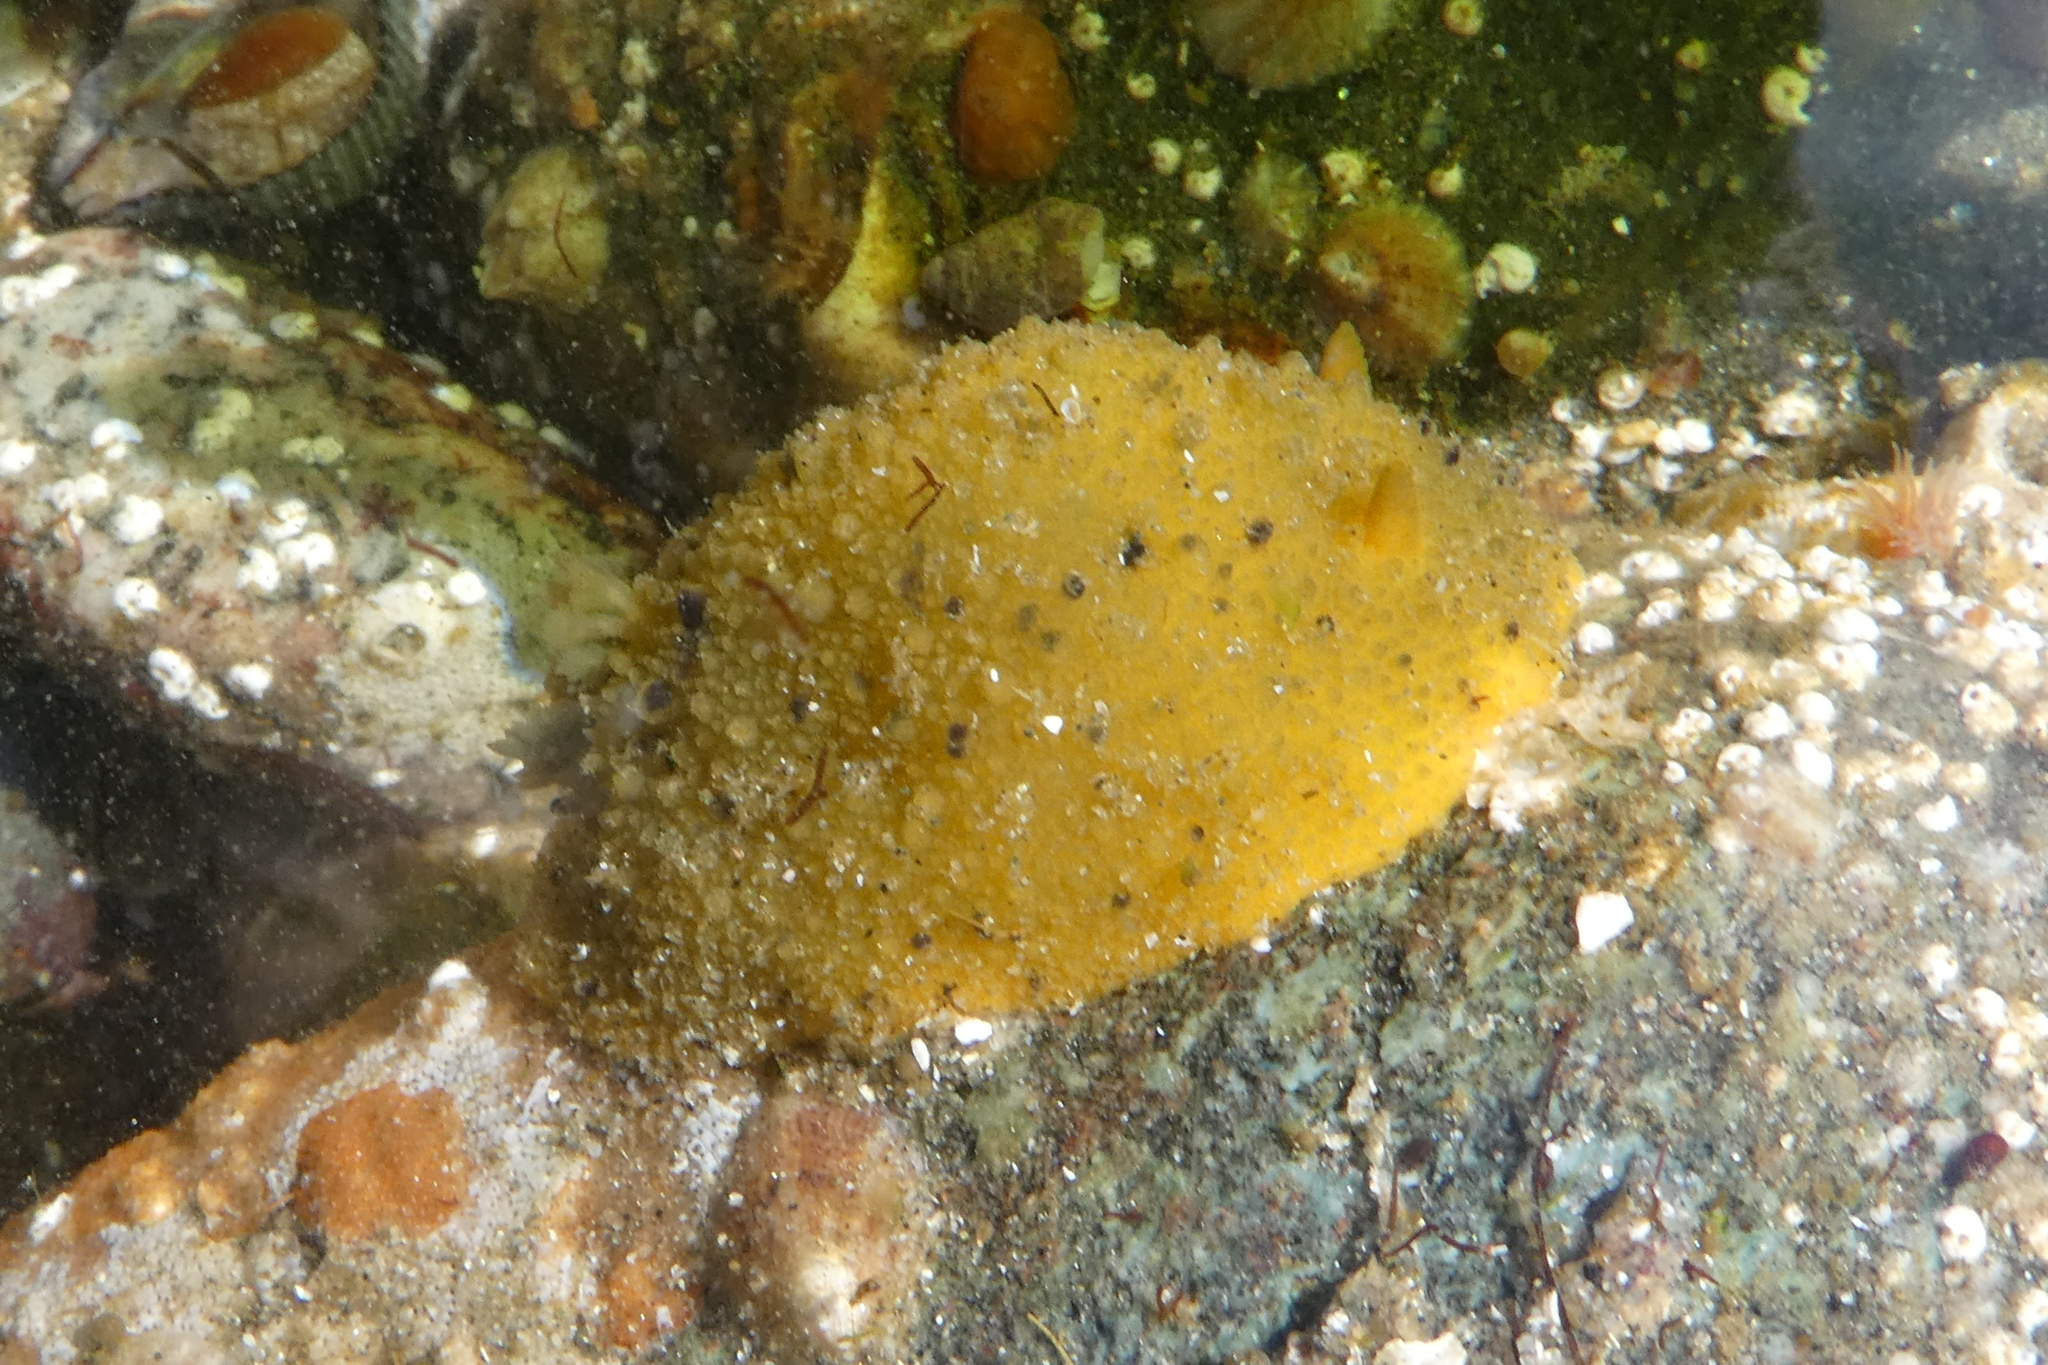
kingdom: Animalia
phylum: Mollusca
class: Gastropoda
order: Nudibranchia
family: Dorididae
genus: Doris
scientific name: Doris montereyensis
